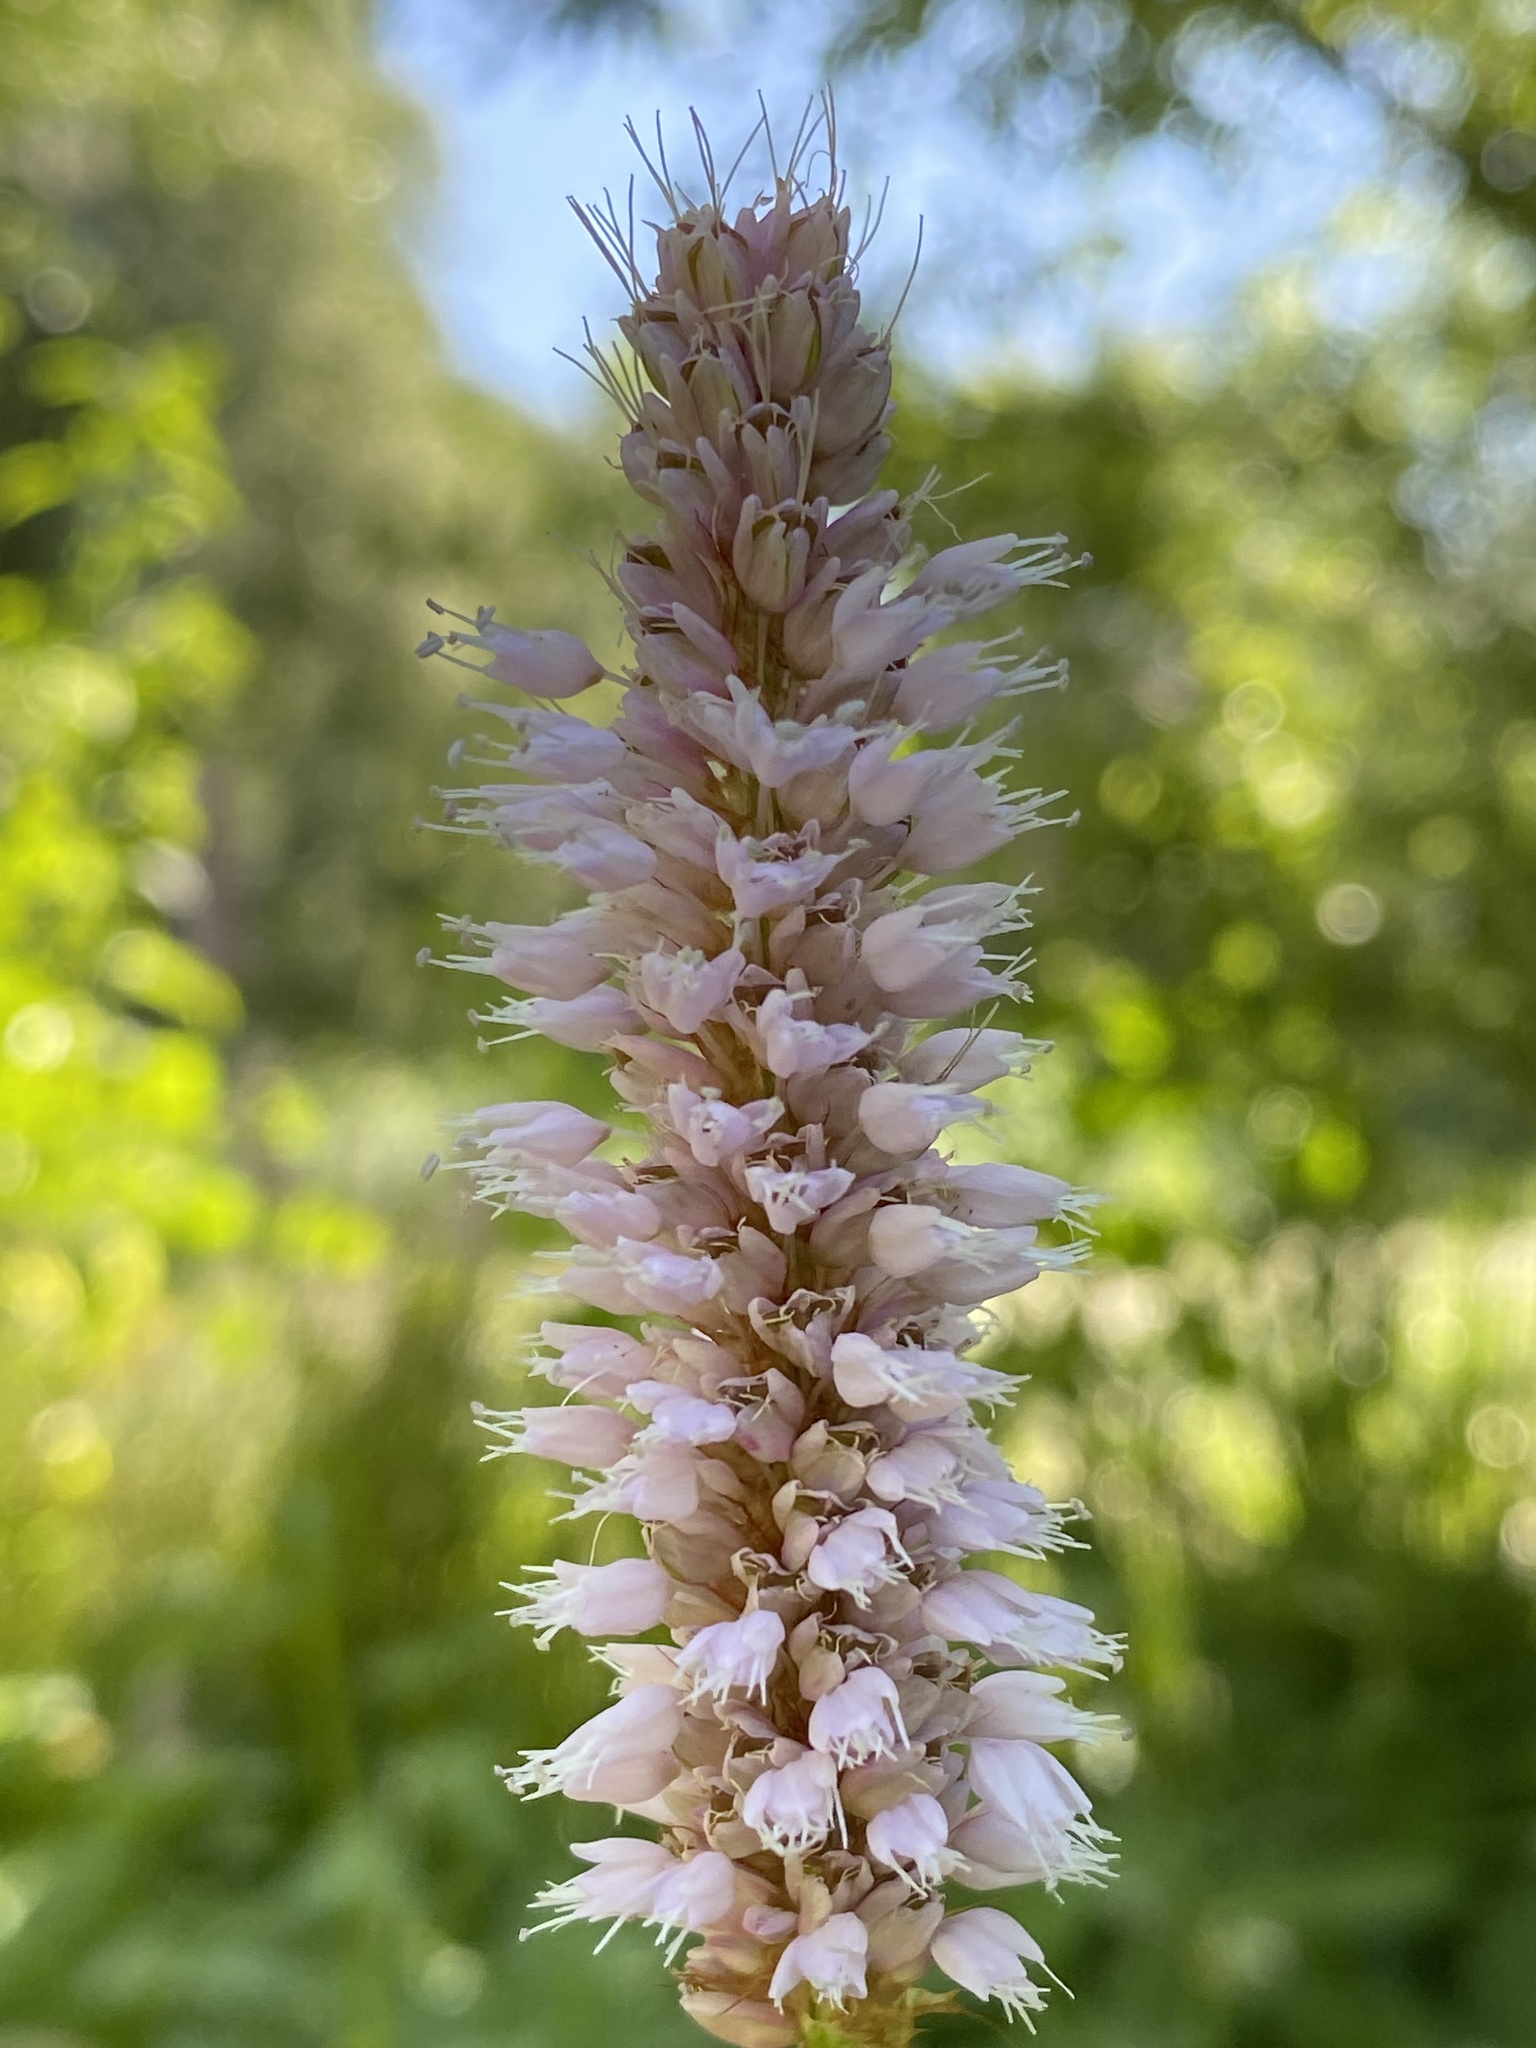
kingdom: Plantae
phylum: Tracheophyta
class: Magnoliopsida
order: Caryophyllales
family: Polygonaceae
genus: Bistorta
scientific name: Bistorta officinalis
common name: Common bistort
